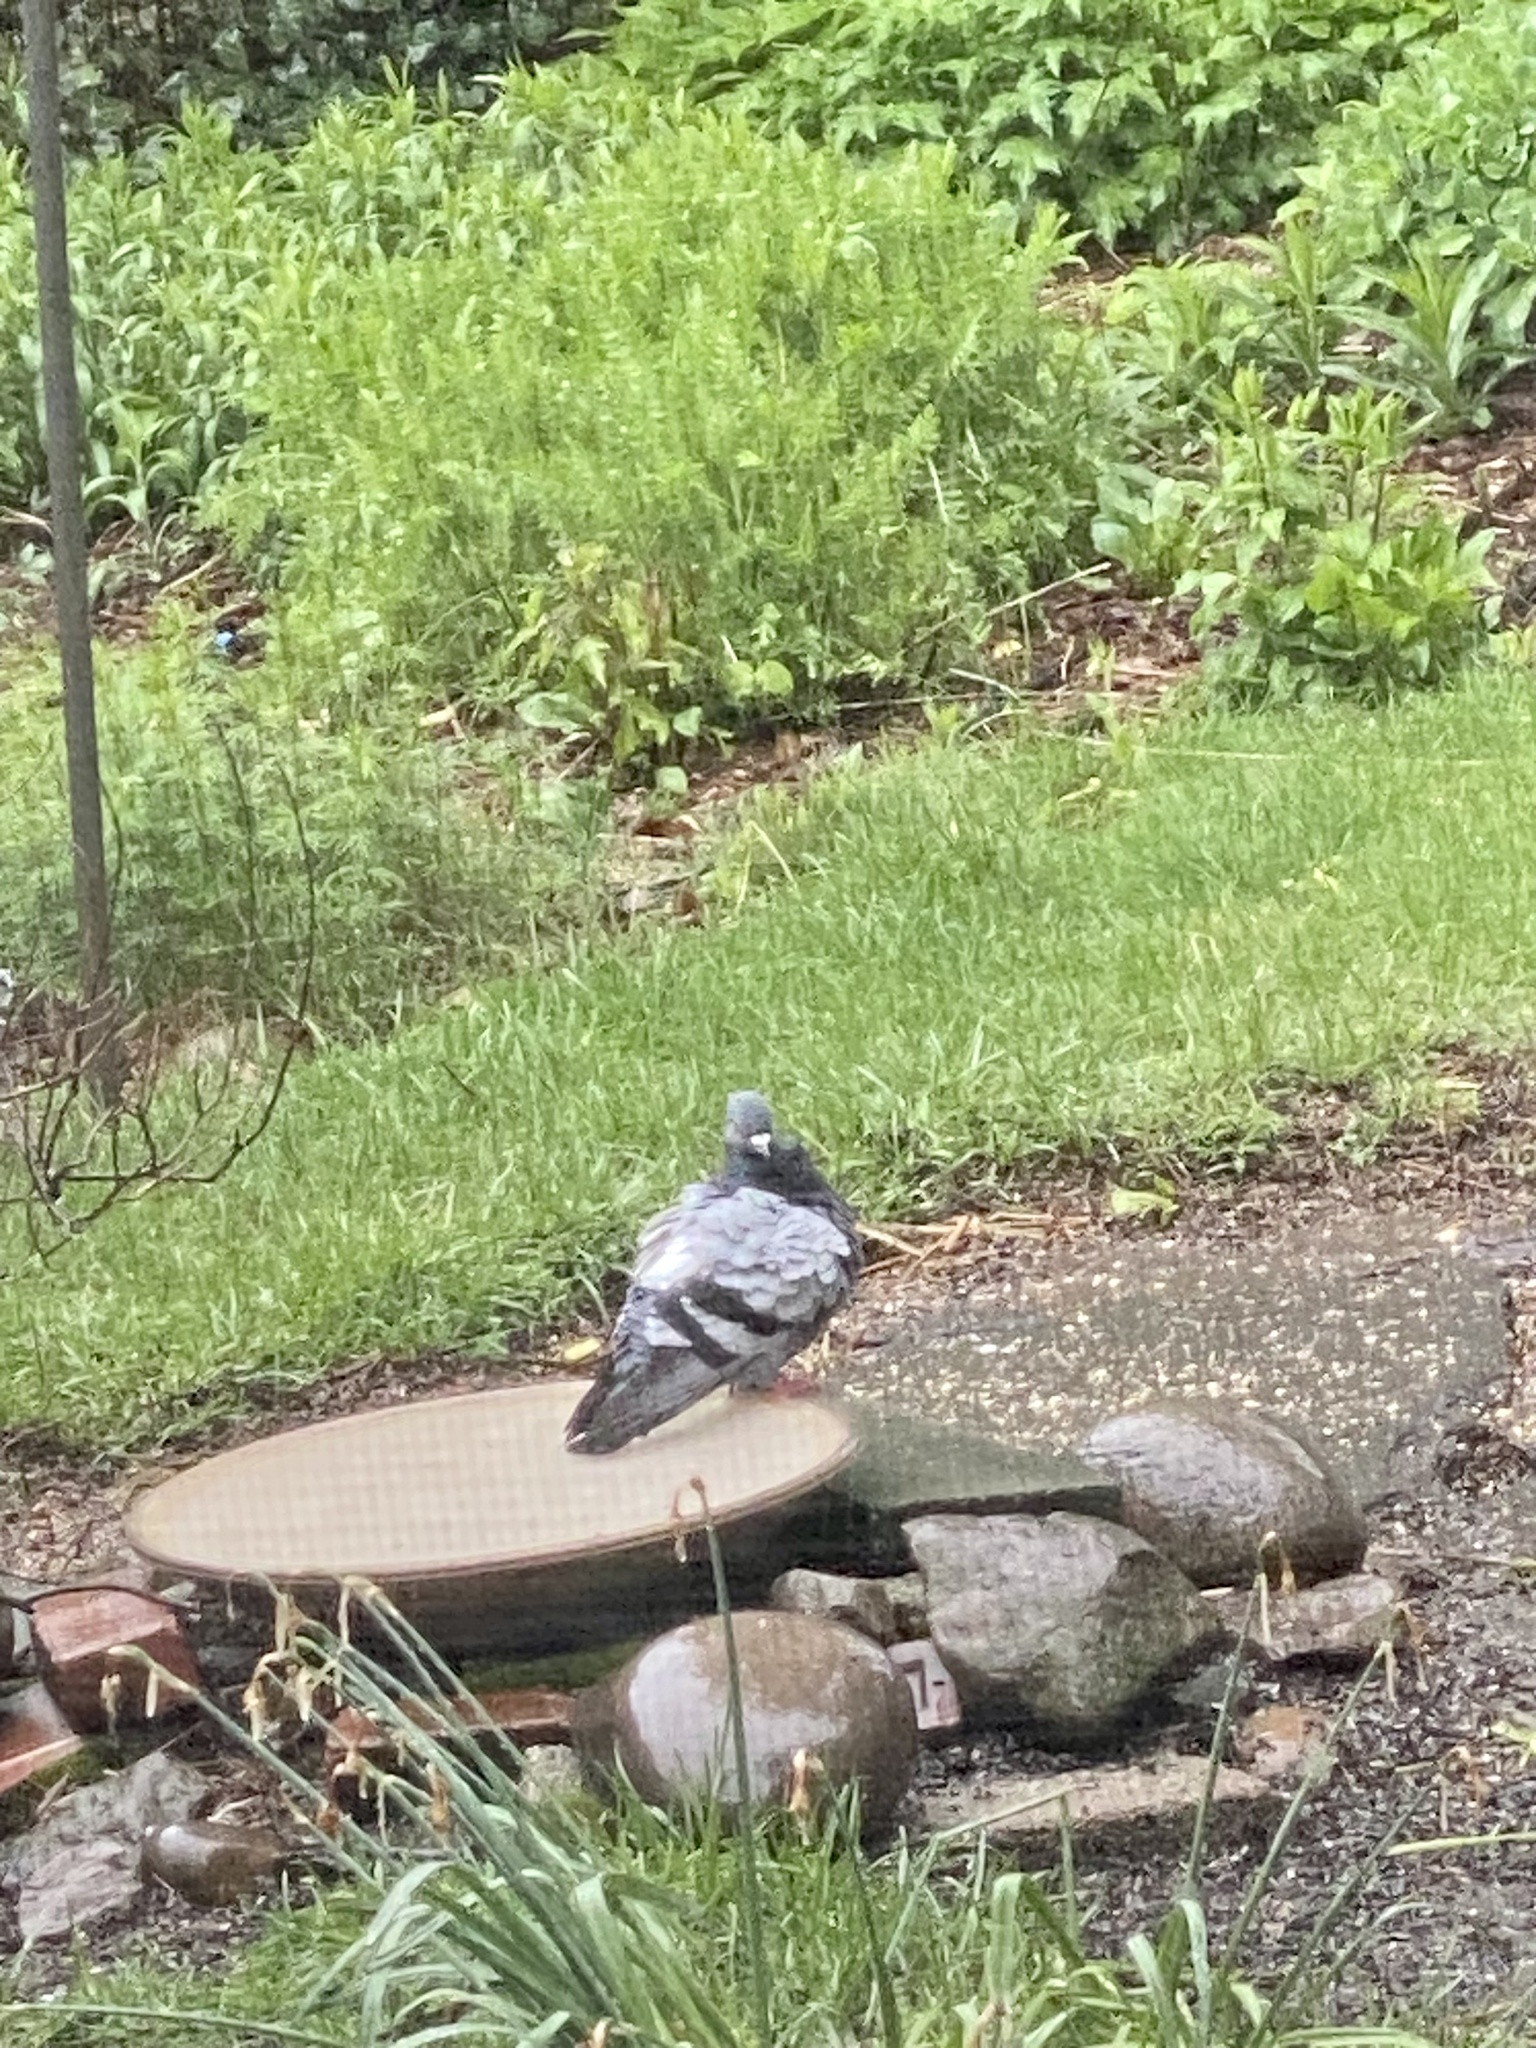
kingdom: Animalia
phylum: Chordata
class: Aves
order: Columbiformes
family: Columbidae
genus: Columba
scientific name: Columba livia
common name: Rock pigeon
